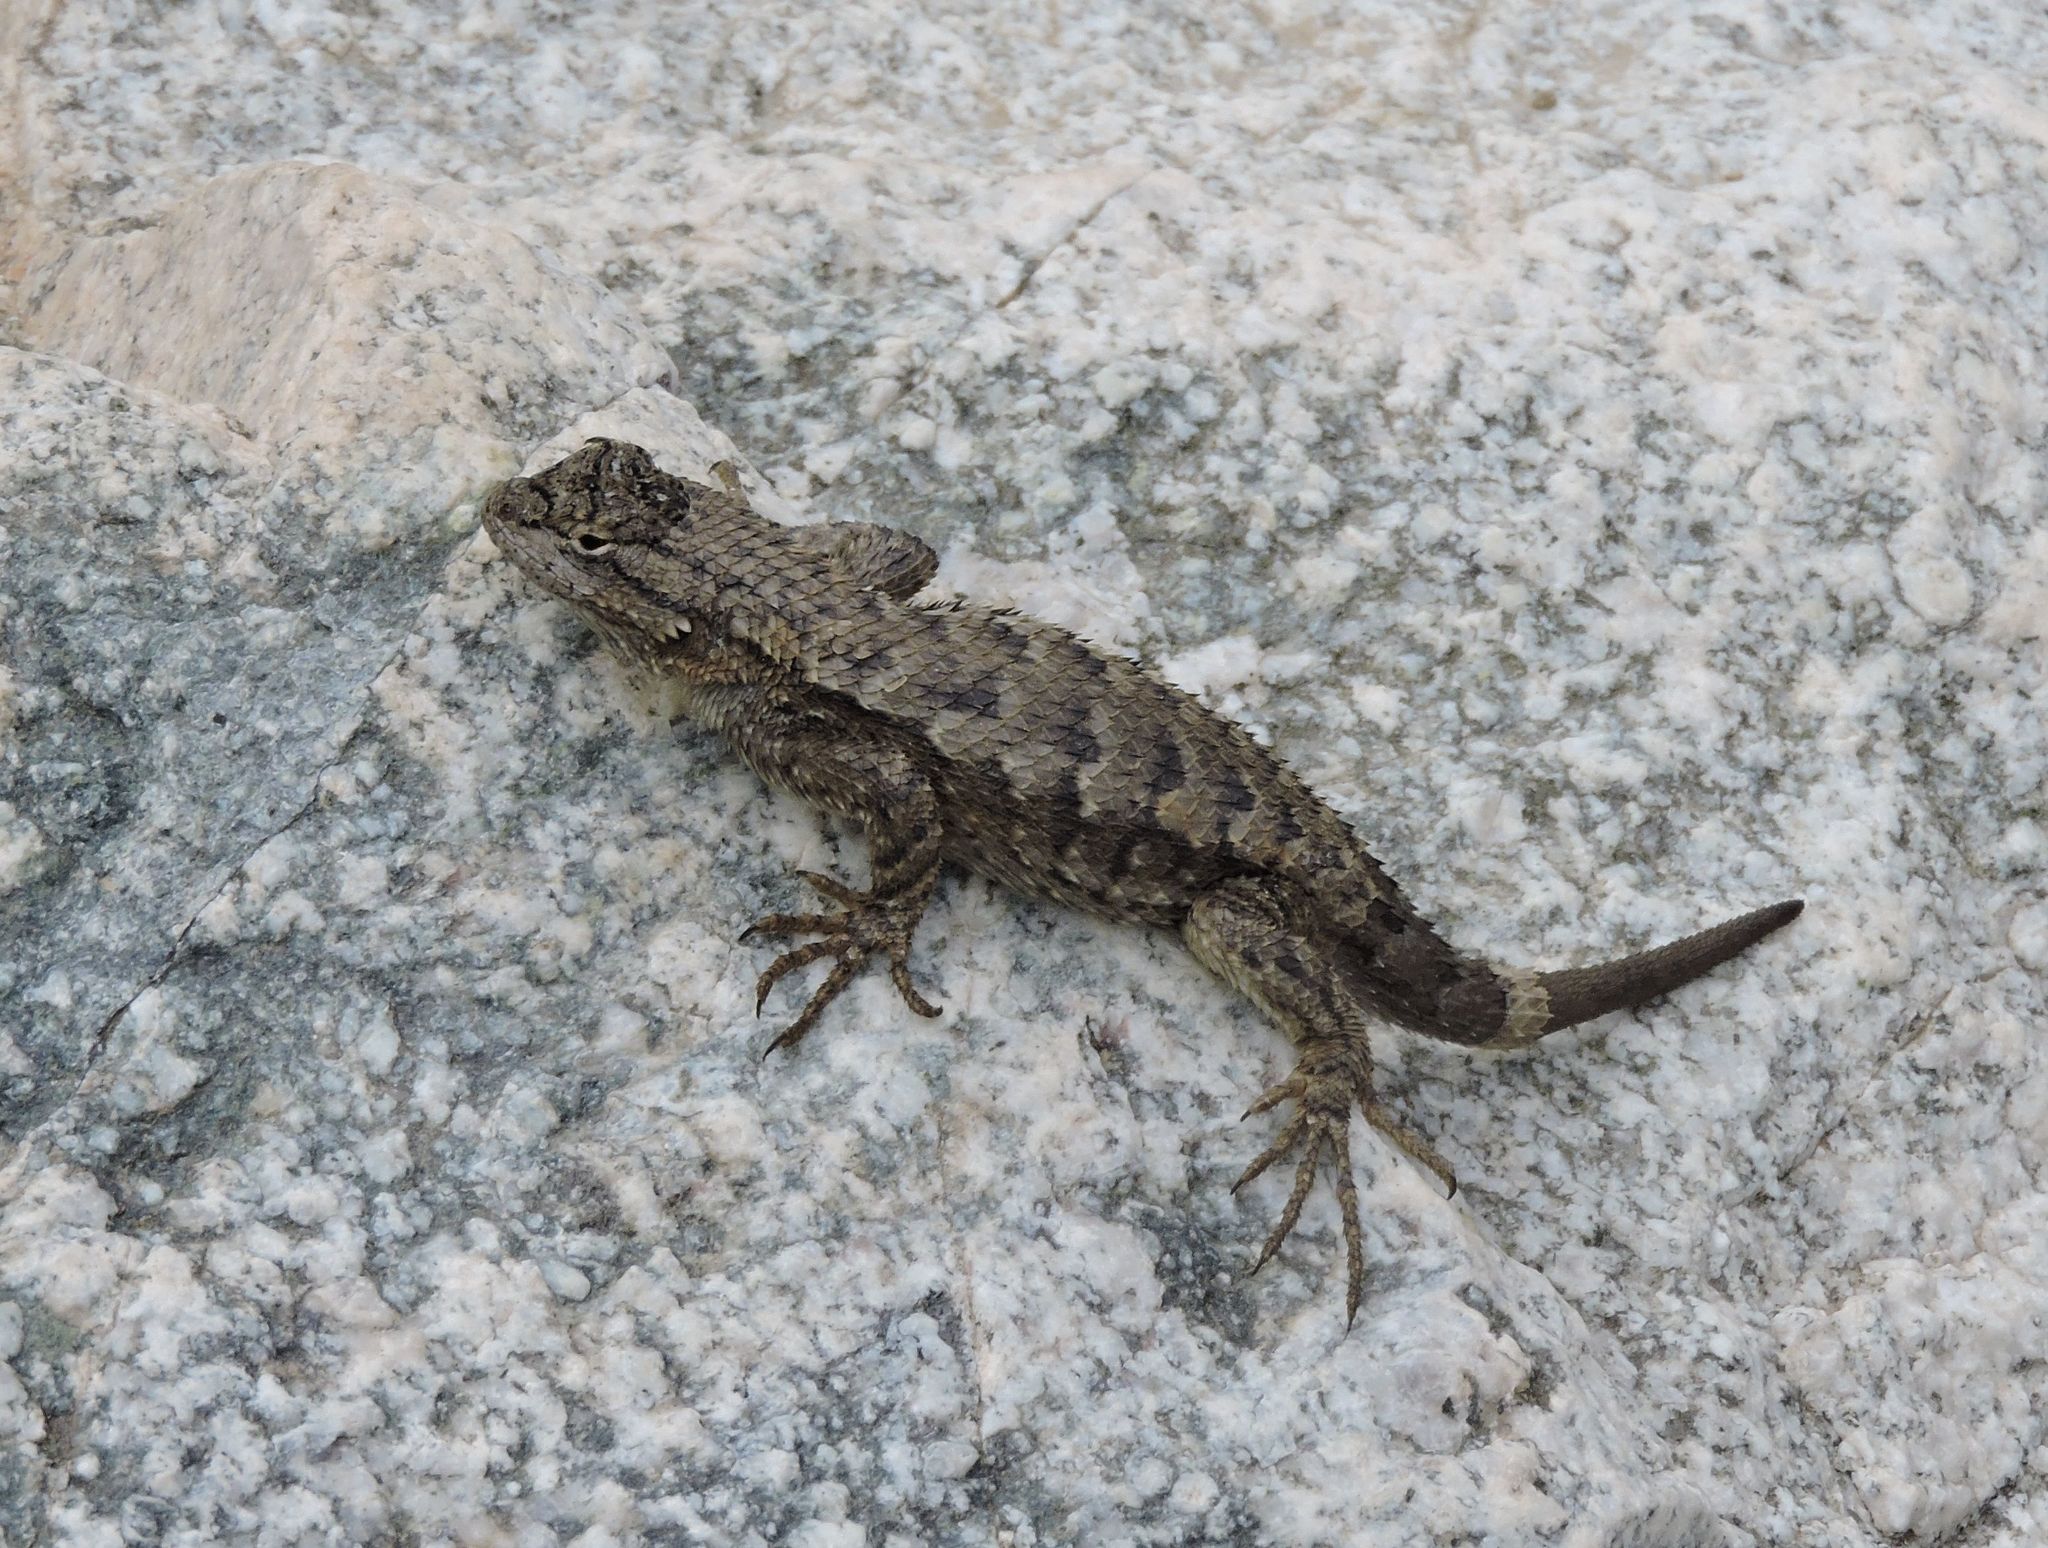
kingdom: Animalia
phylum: Chordata
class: Squamata
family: Phrynosomatidae
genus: Sceloporus
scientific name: Sceloporus occidentalis
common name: Western fence lizard
